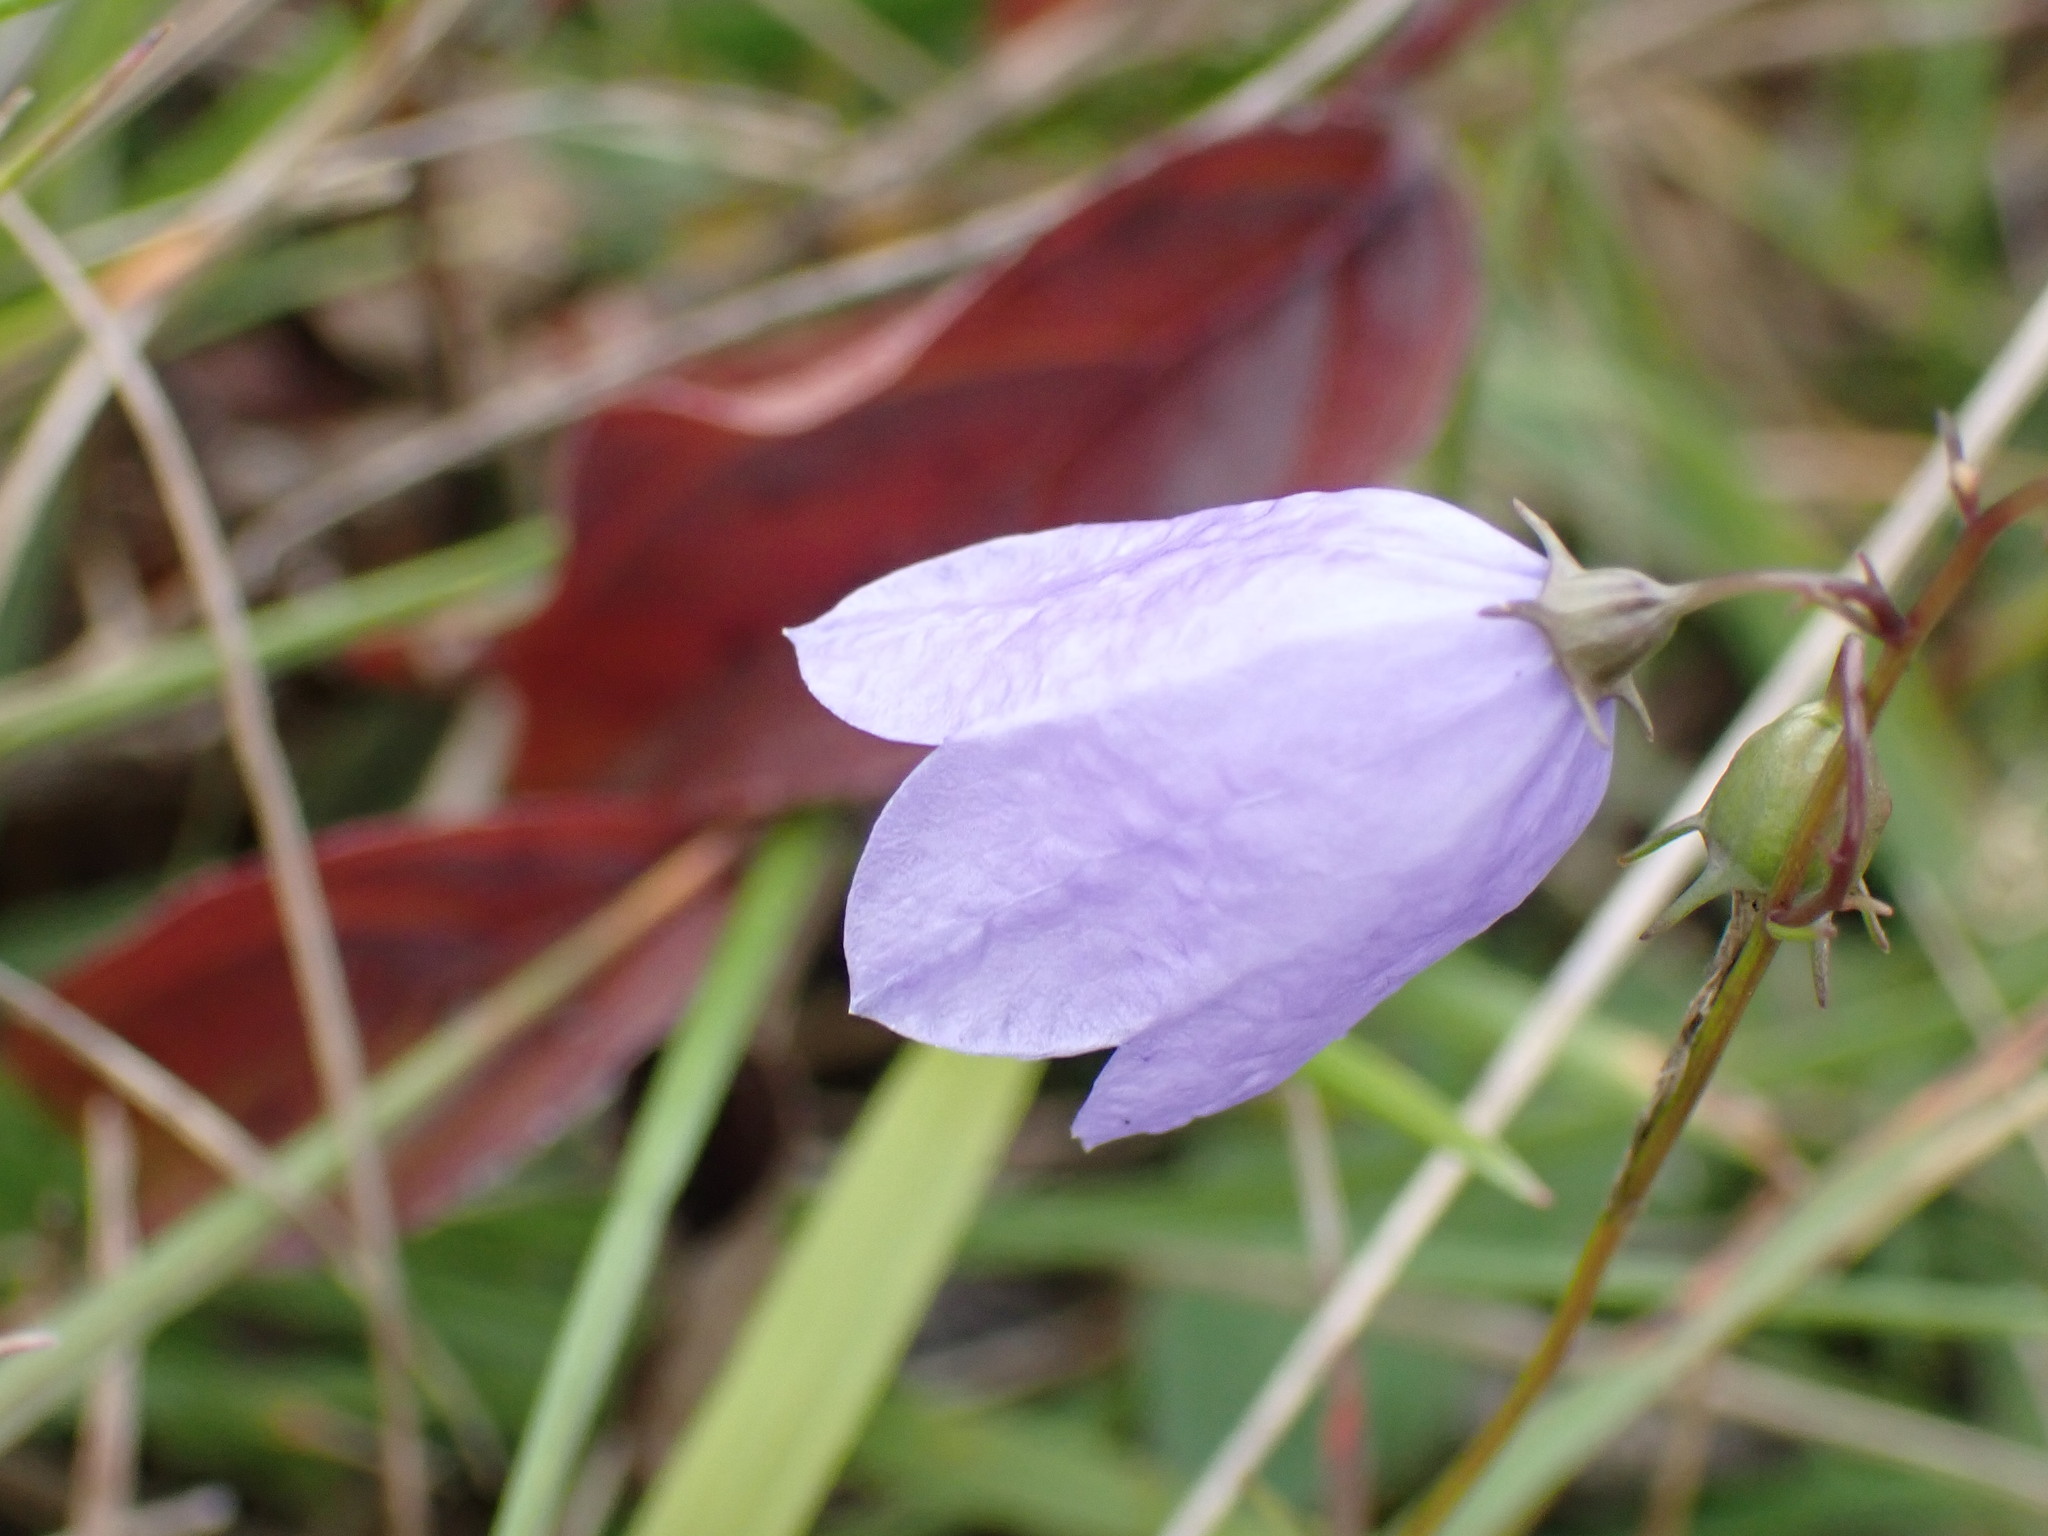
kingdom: Plantae
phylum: Tracheophyta
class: Magnoliopsida
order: Asterales
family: Campanulaceae
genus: Campanula
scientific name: Campanula rotundifolia
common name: Harebell
